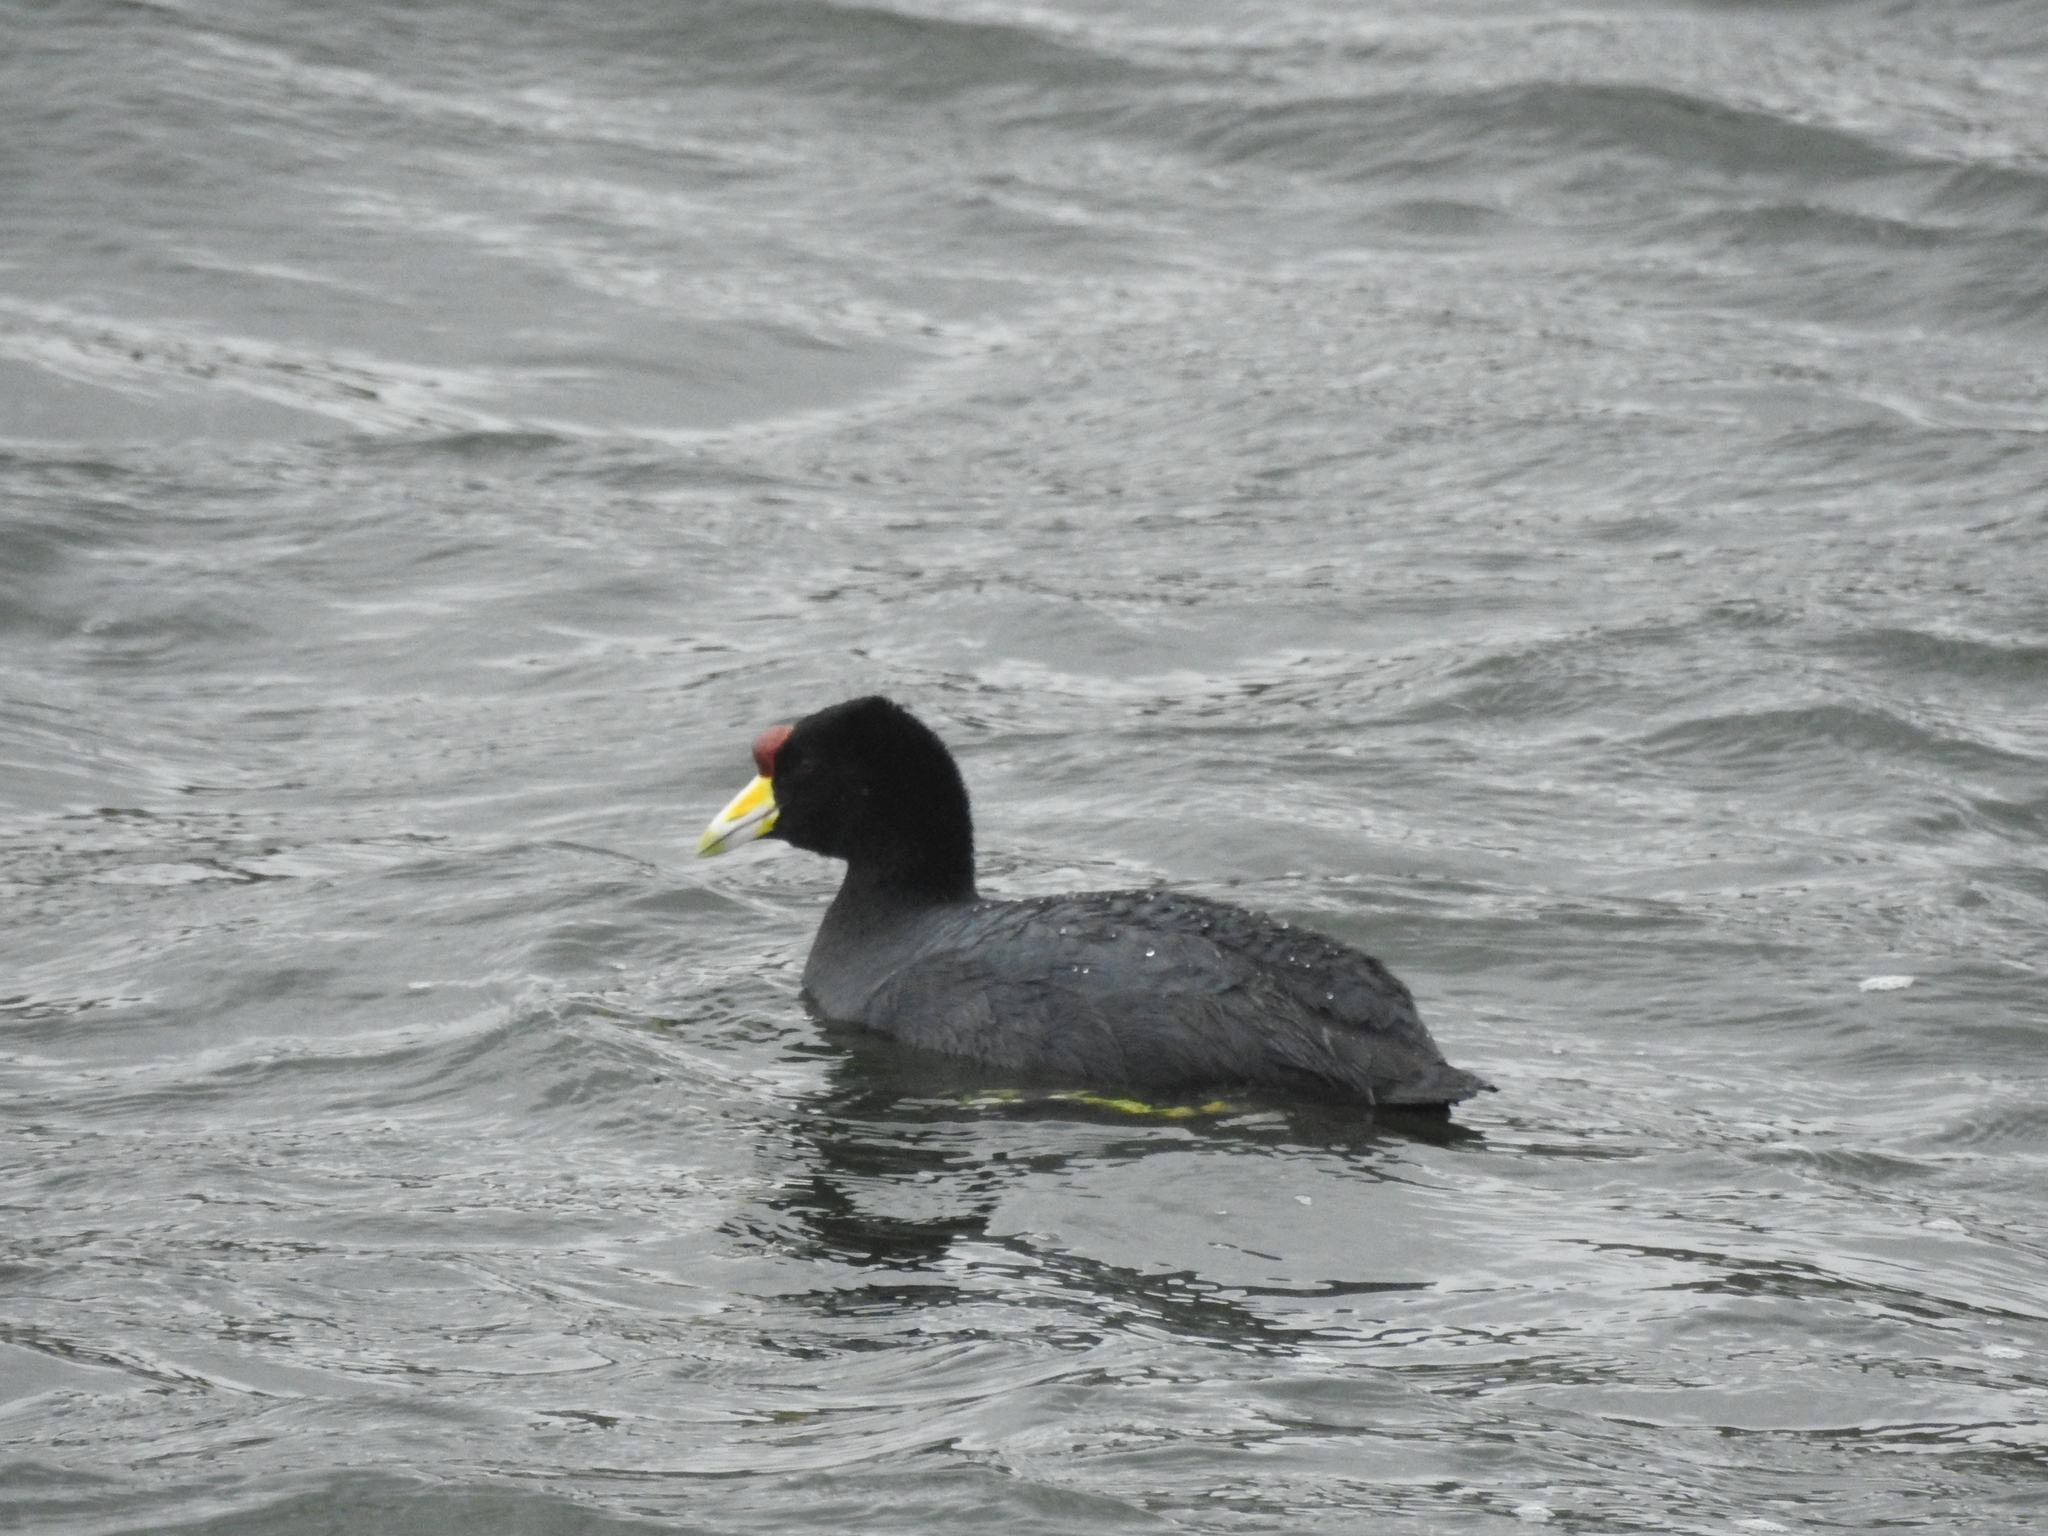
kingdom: Animalia
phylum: Chordata
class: Aves
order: Gruiformes
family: Rallidae
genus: Fulica
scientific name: Fulica ardesiaca
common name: Andean coot
